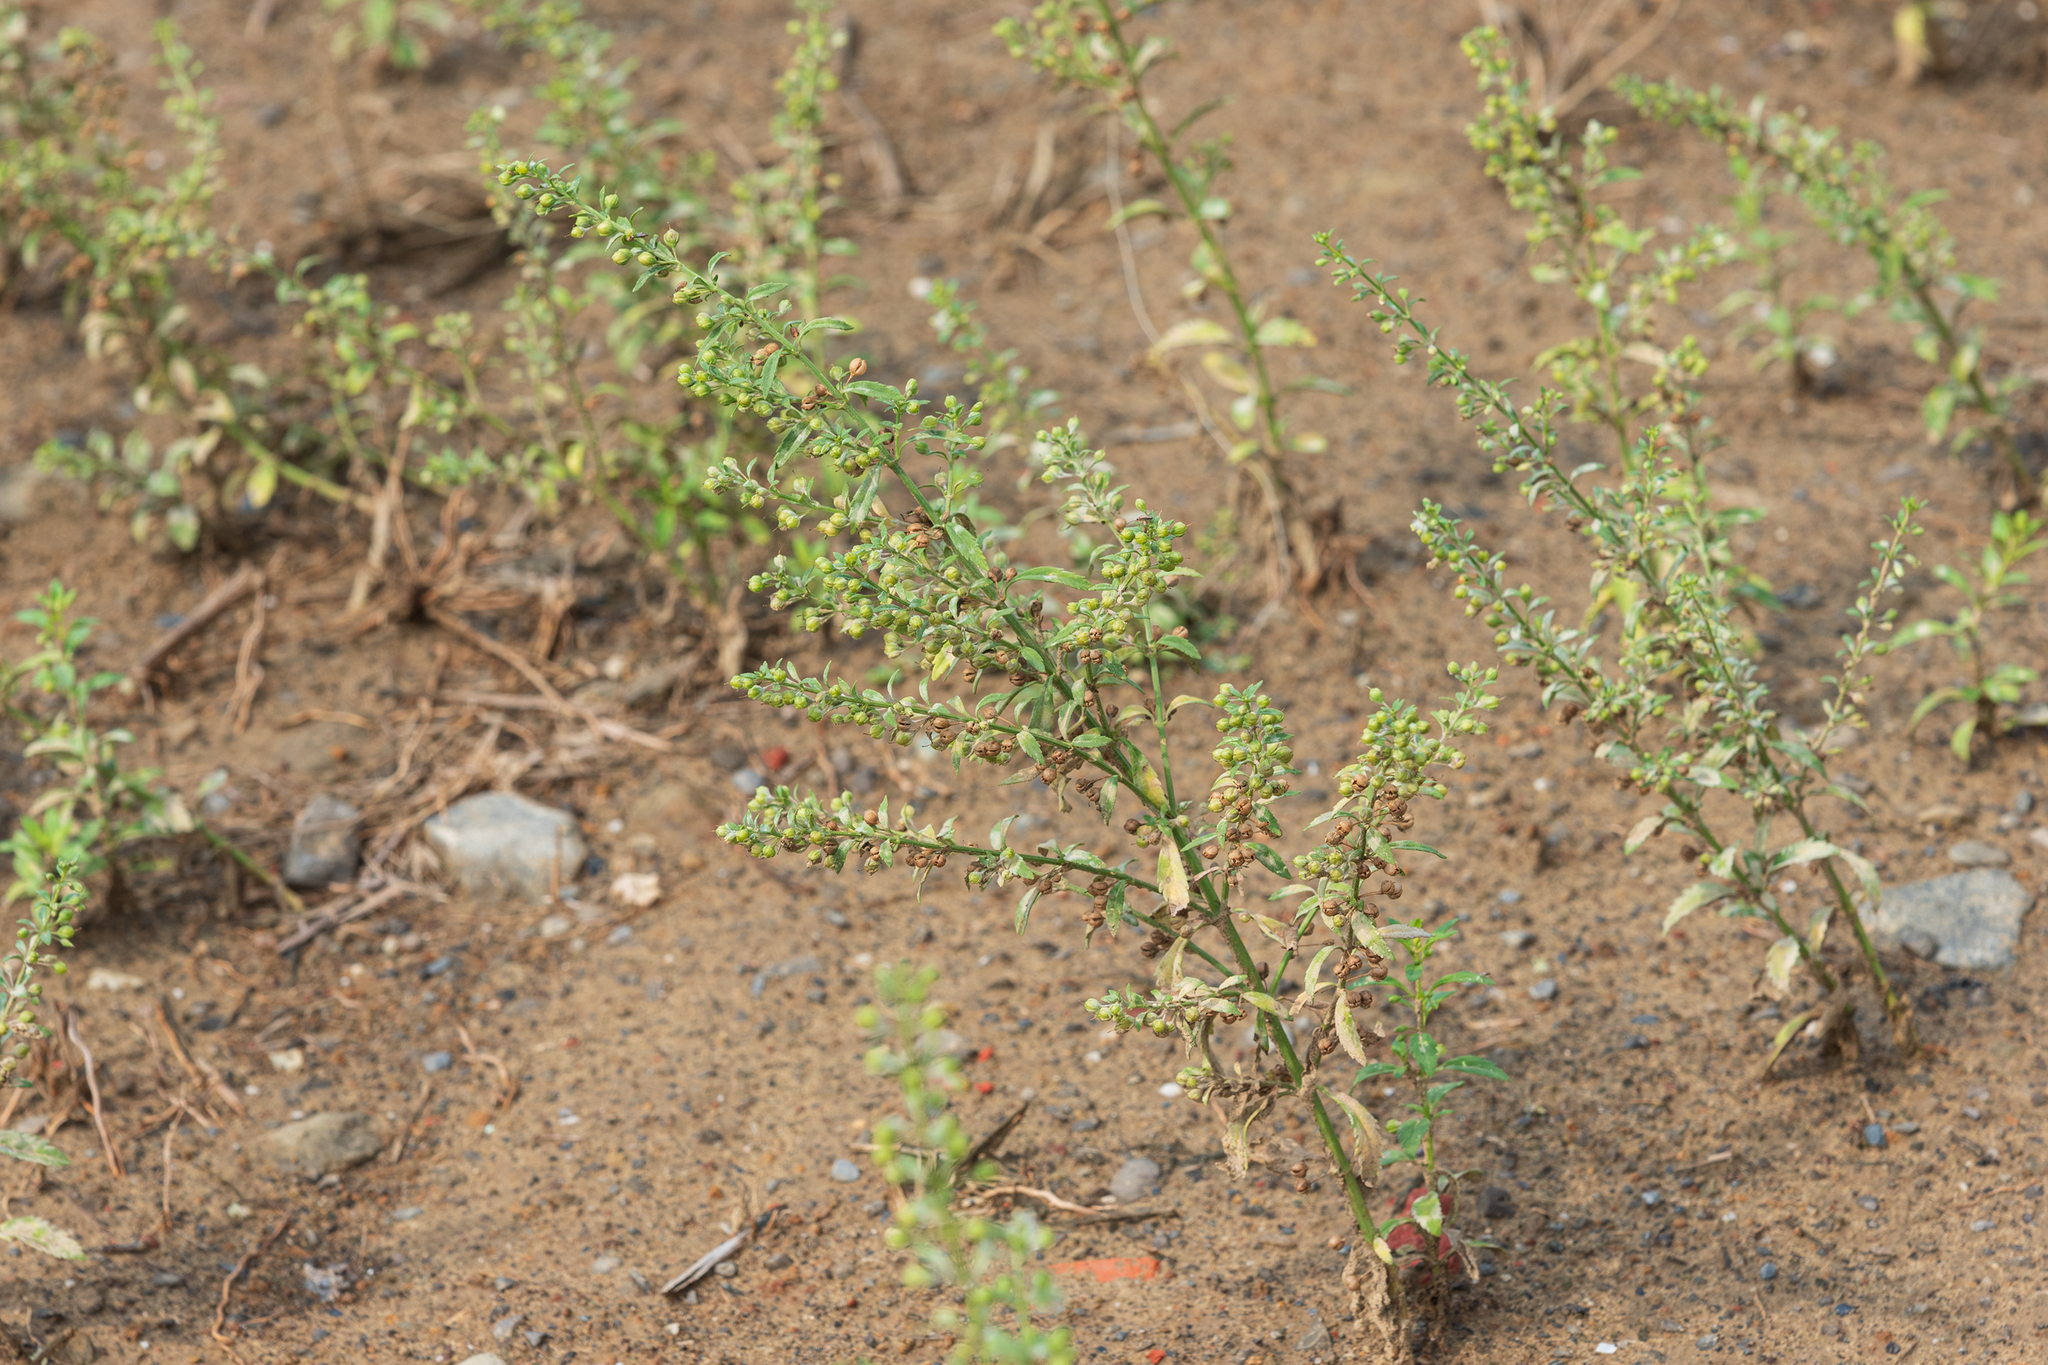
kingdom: Plantae
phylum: Tracheophyta
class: Magnoliopsida
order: Lamiales
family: Plantaginaceae
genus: Scoparia
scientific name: Scoparia dulcis
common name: Scoparia-weed
